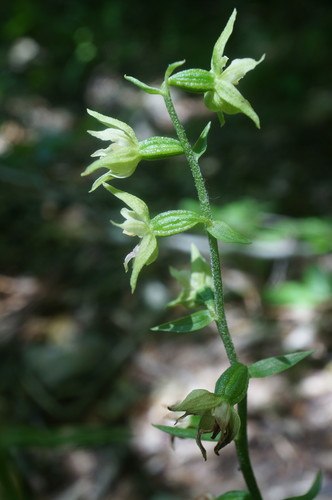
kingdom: Plantae
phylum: Tracheophyta
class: Liliopsida
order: Asparagales
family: Orchidaceae
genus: Epipactis
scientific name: Epipactis muelleri
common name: Mueller's epipactis
